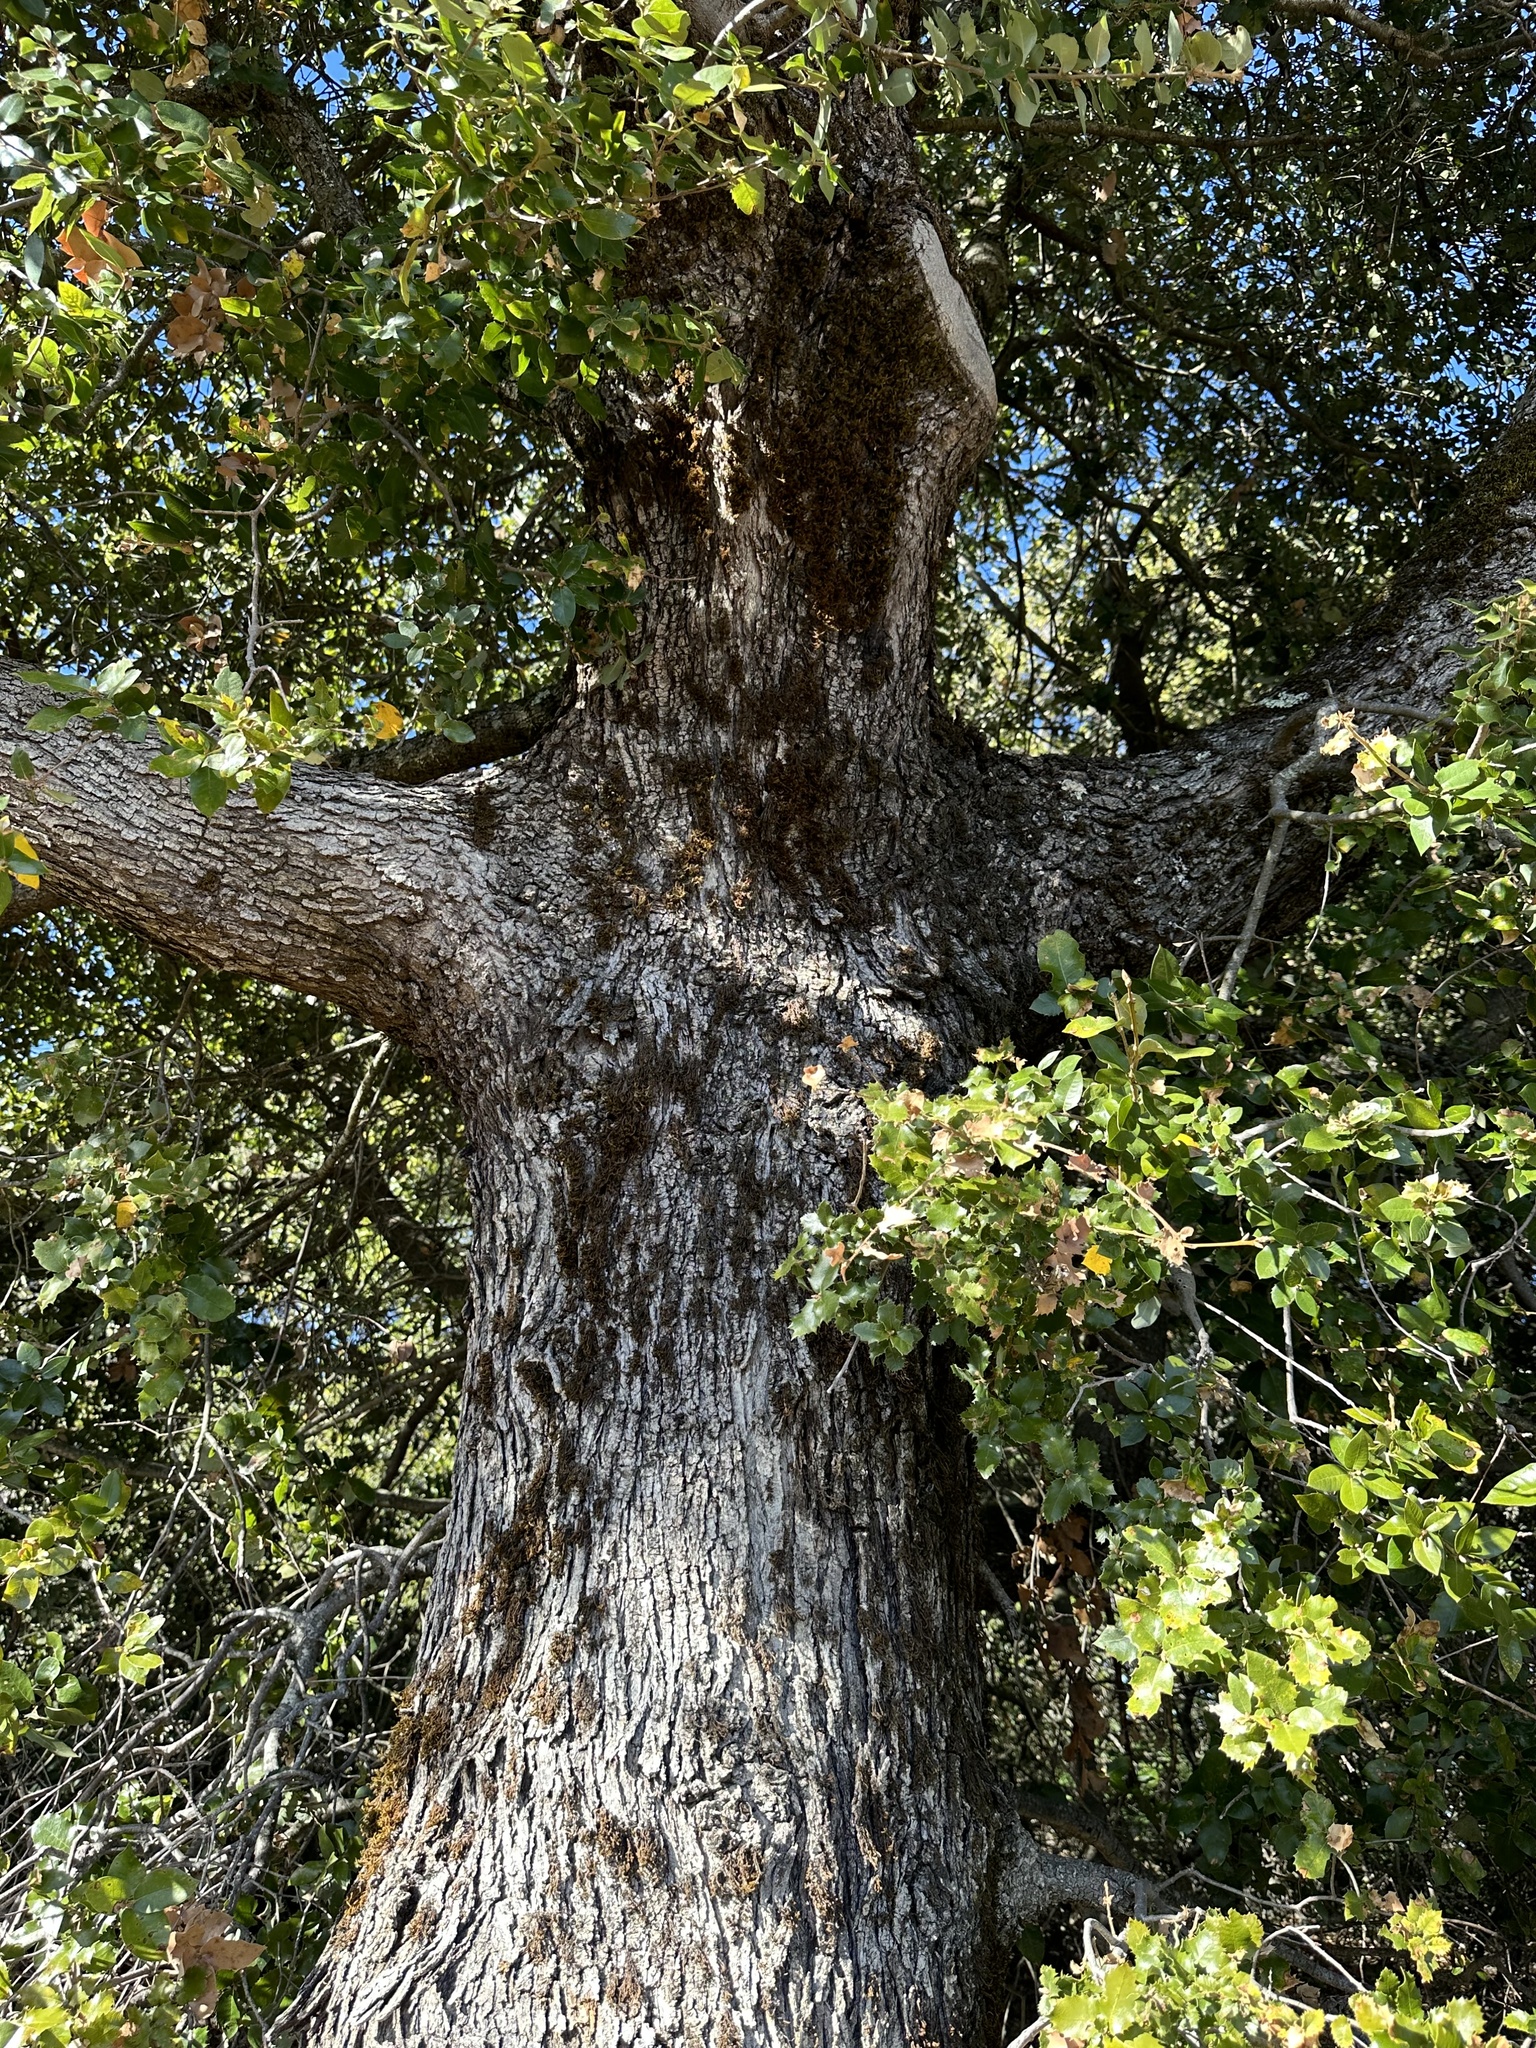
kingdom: Plantae
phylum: Tracheophyta
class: Magnoliopsida
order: Fagales
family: Fagaceae
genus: Quercus
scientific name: Quercus chrysolepis
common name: Canyon live oak
